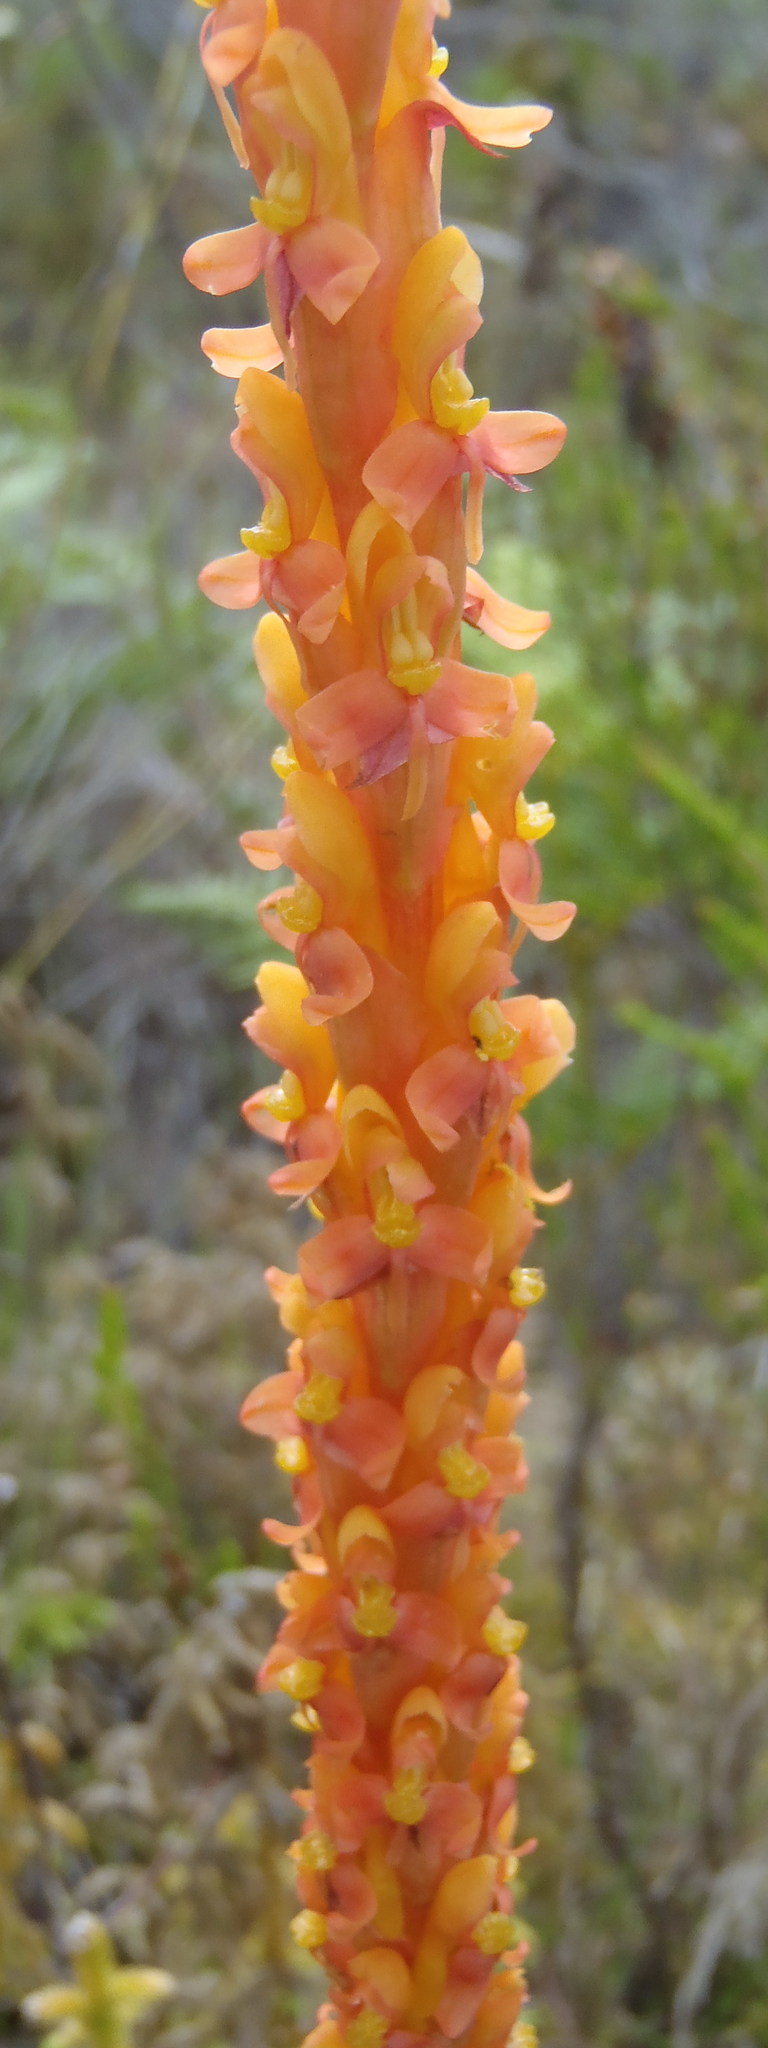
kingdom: Plantae
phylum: Tracheophyta
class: Liliopsida
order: Asparagales
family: Orchidaceae
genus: Disa
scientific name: Disa chrysostachya
